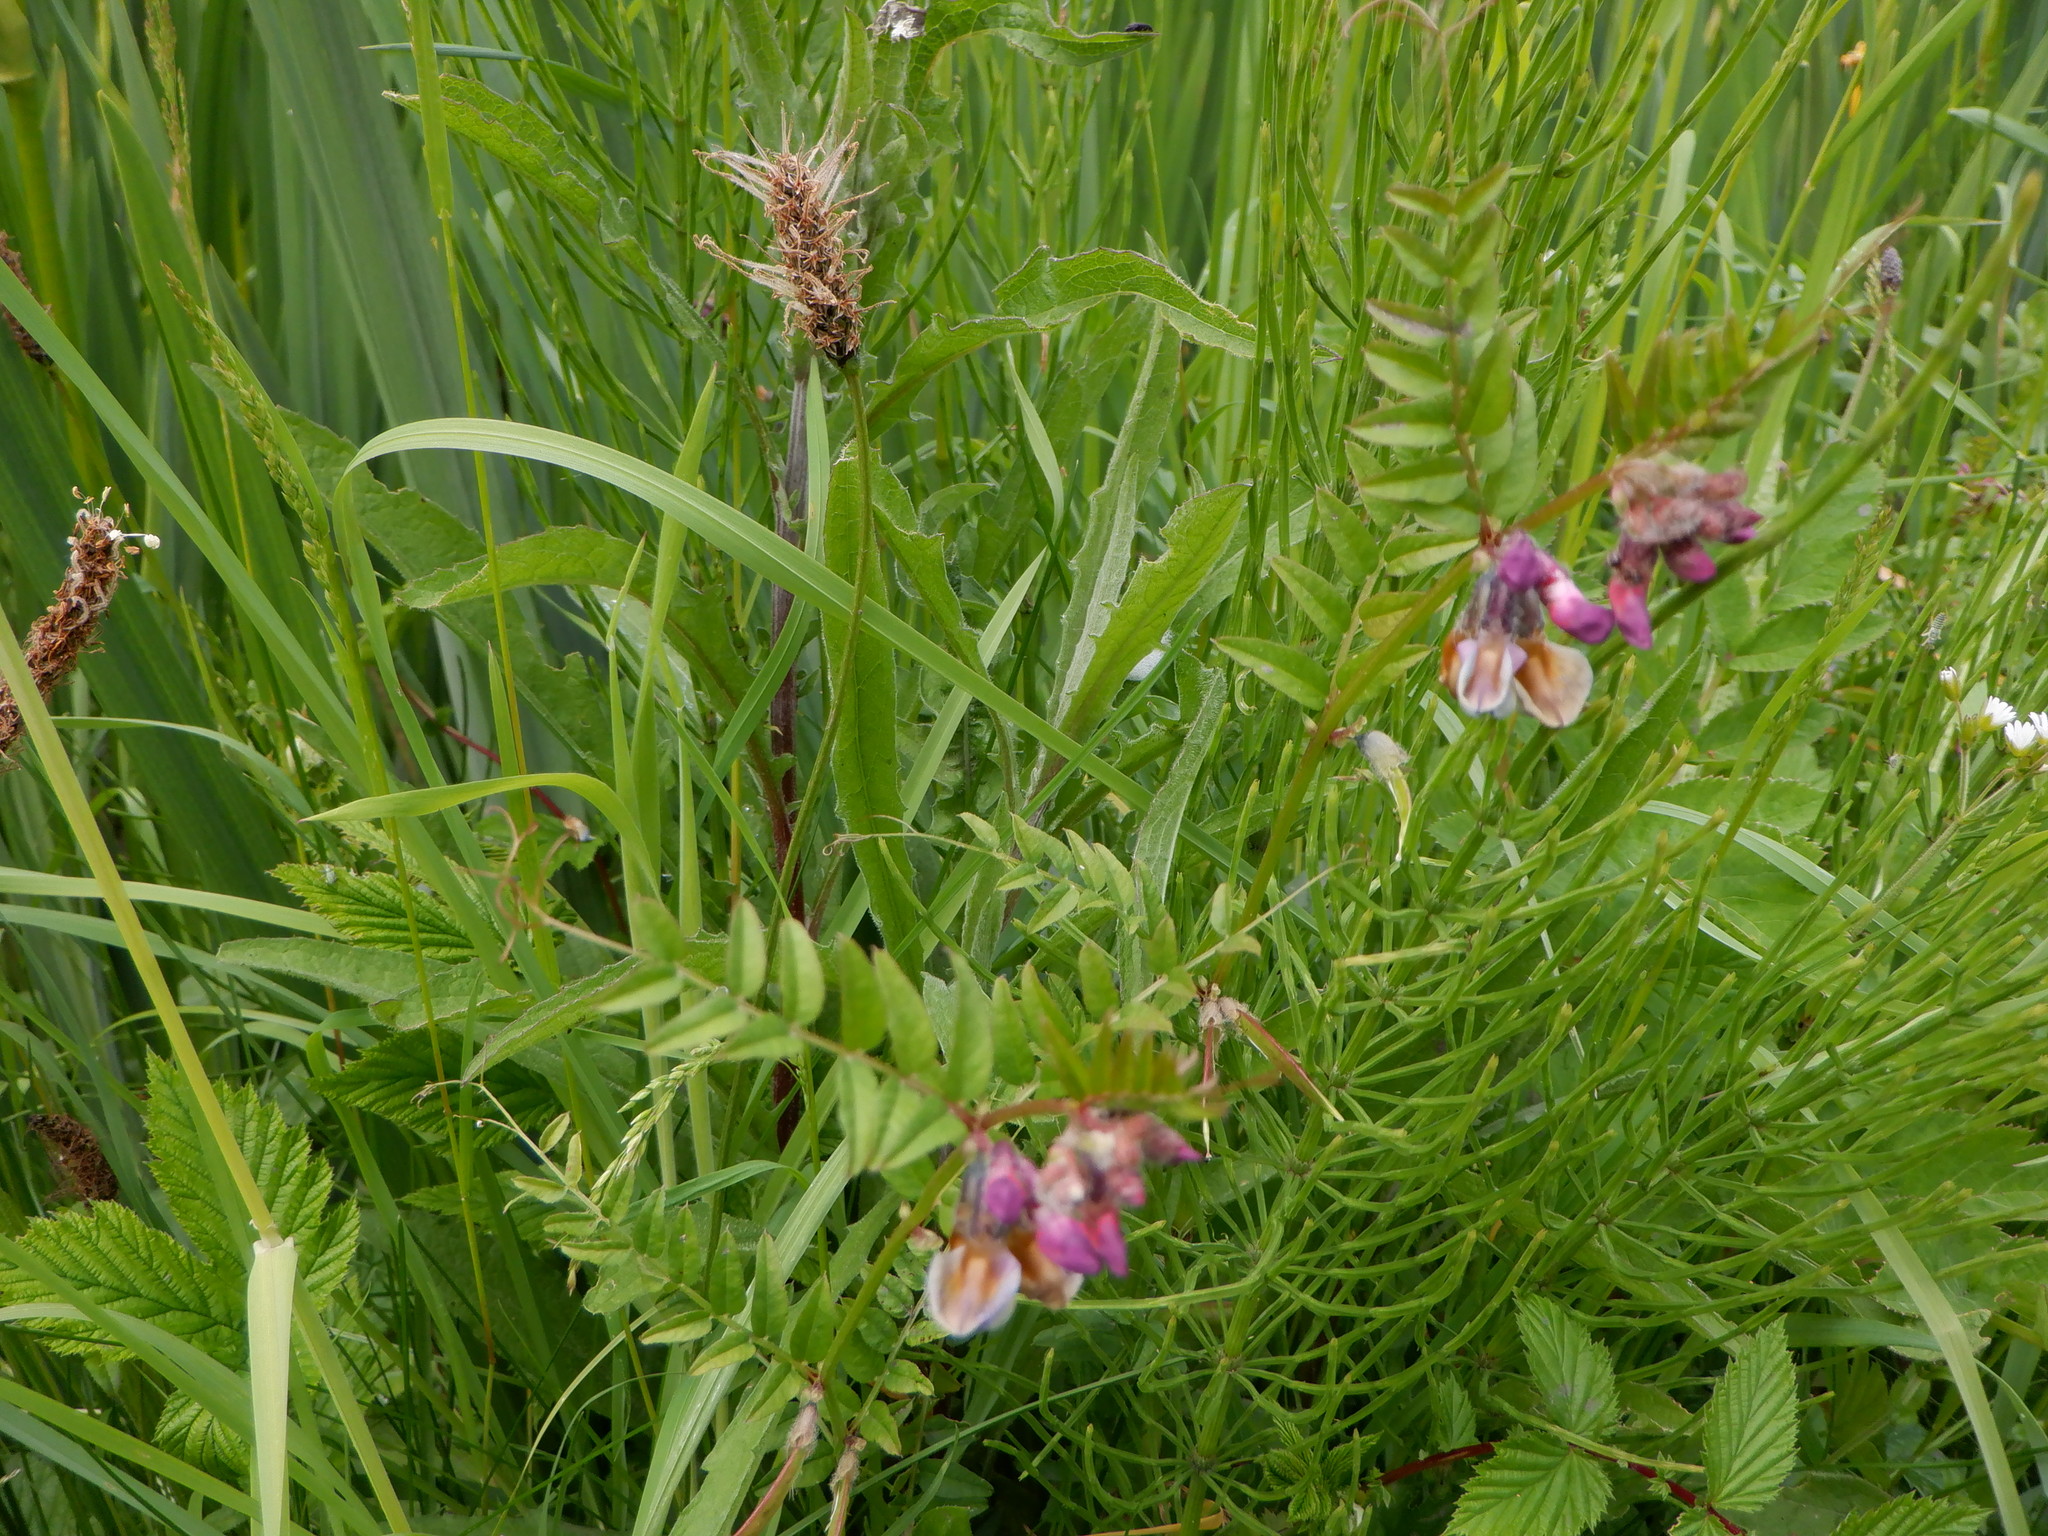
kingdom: Plantae
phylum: Tracheophyta
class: Magnoliopsida
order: Fabales
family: Fabaceae
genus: Vicia
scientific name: Vicia sepium
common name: Bush vetch
